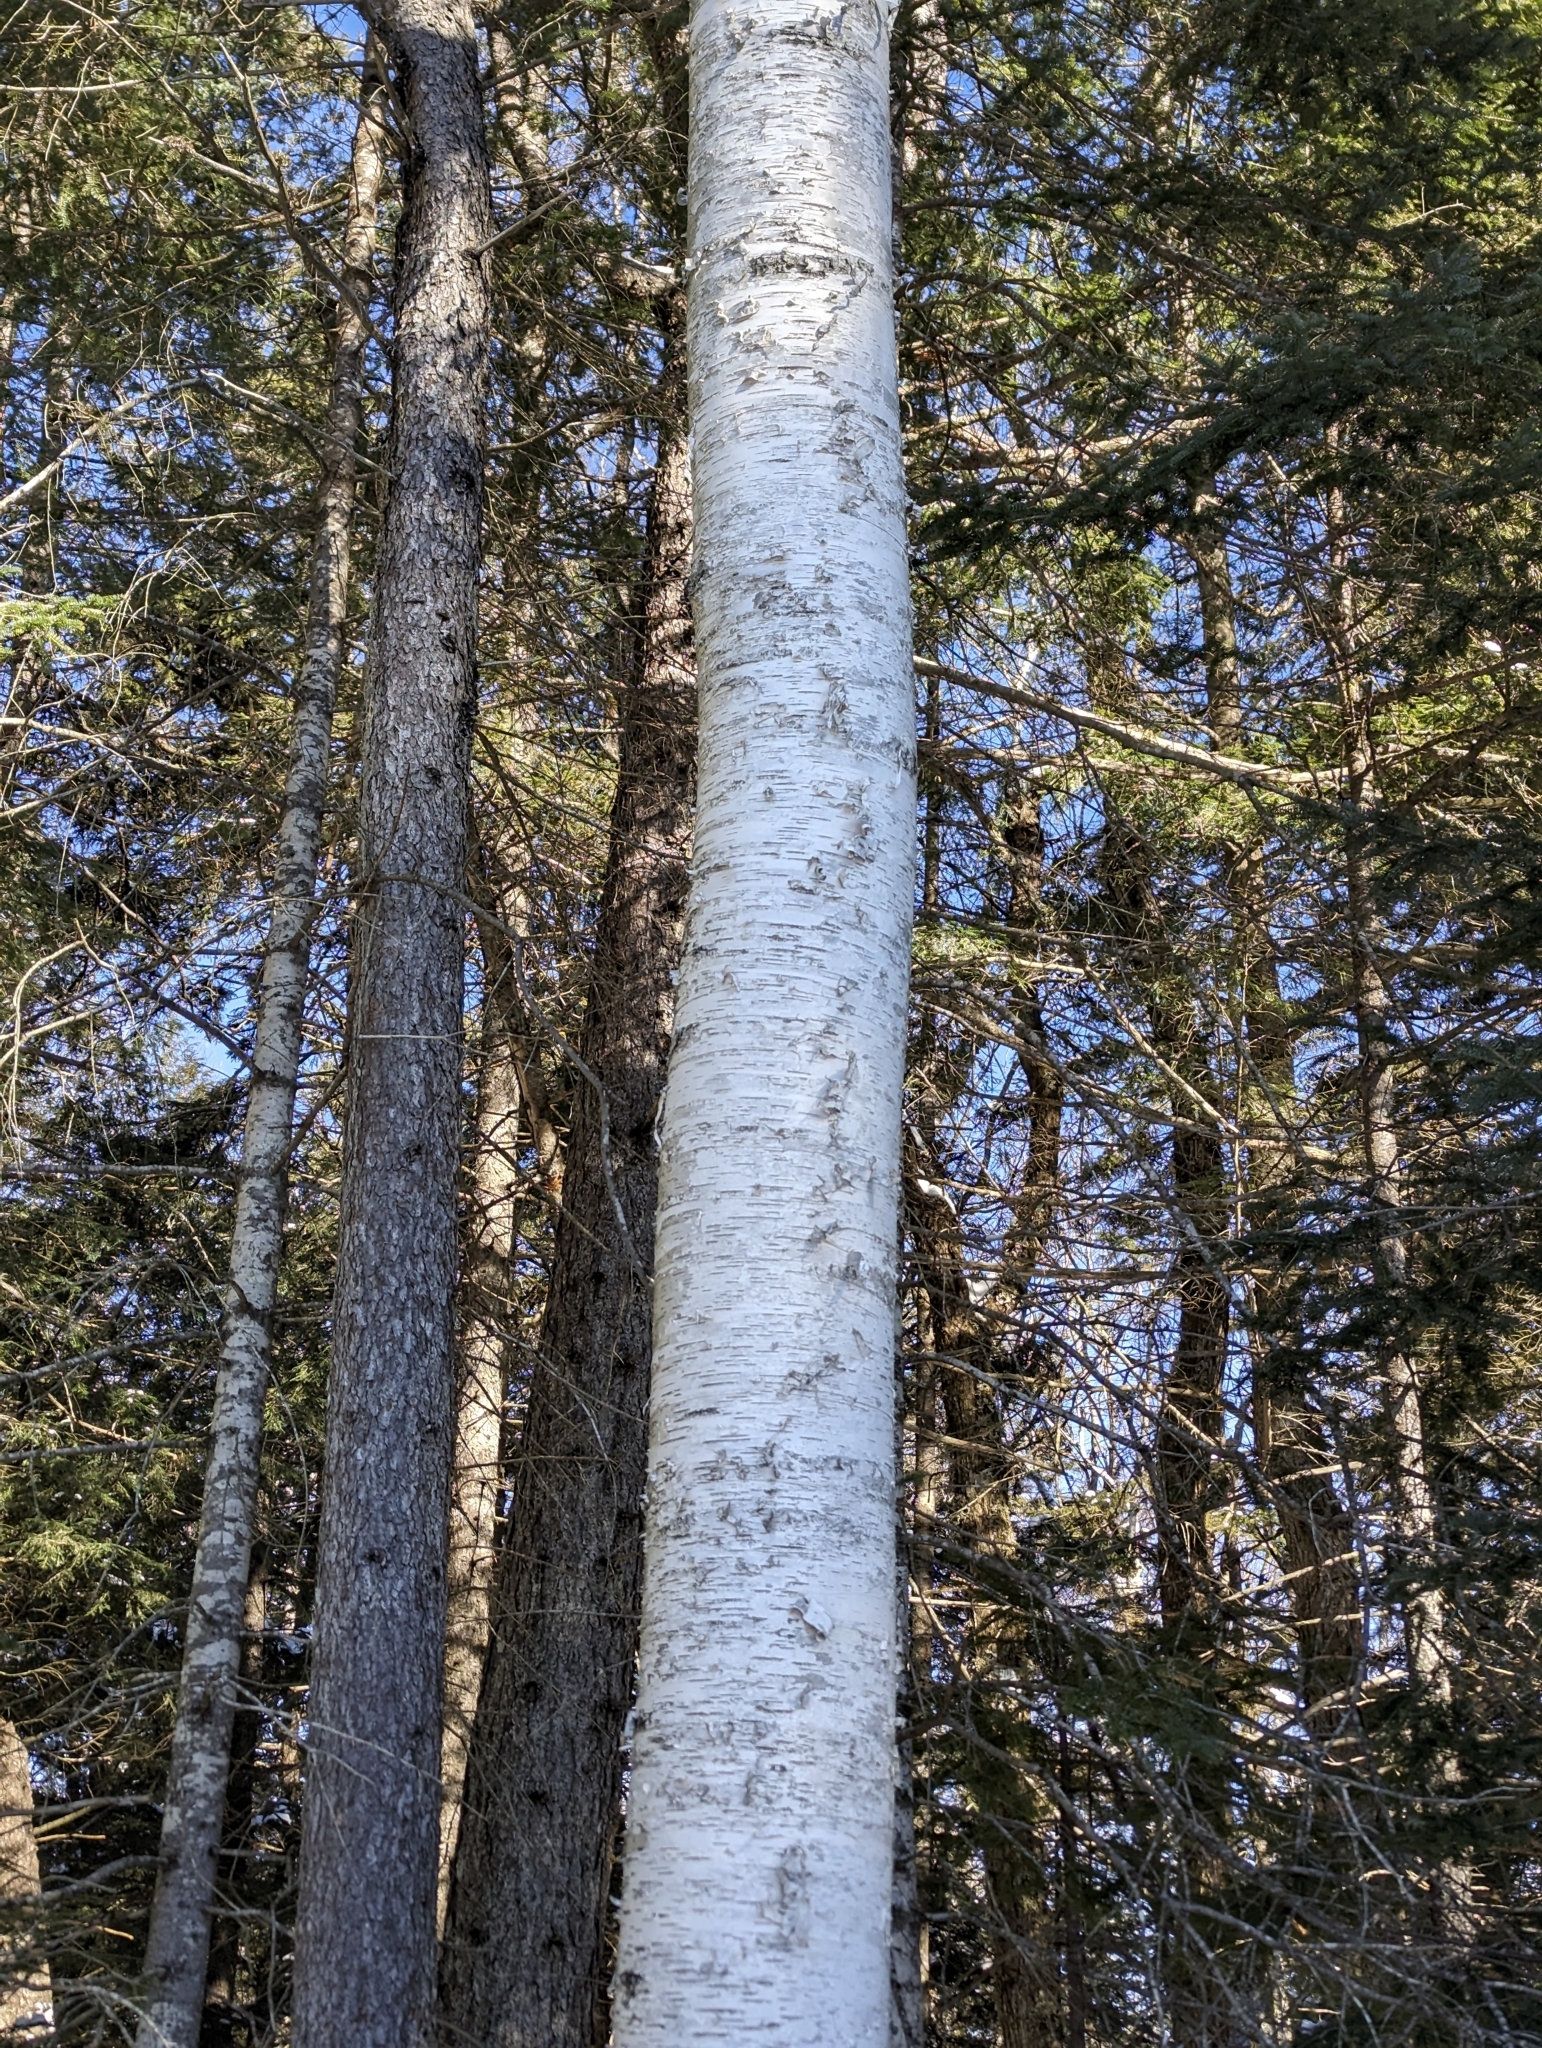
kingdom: Plantae
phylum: Tracheophyta
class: Magnoliopsida
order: Fagales
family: Betulaceae
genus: Betula
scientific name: Betula papyrifera
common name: Paper birch
